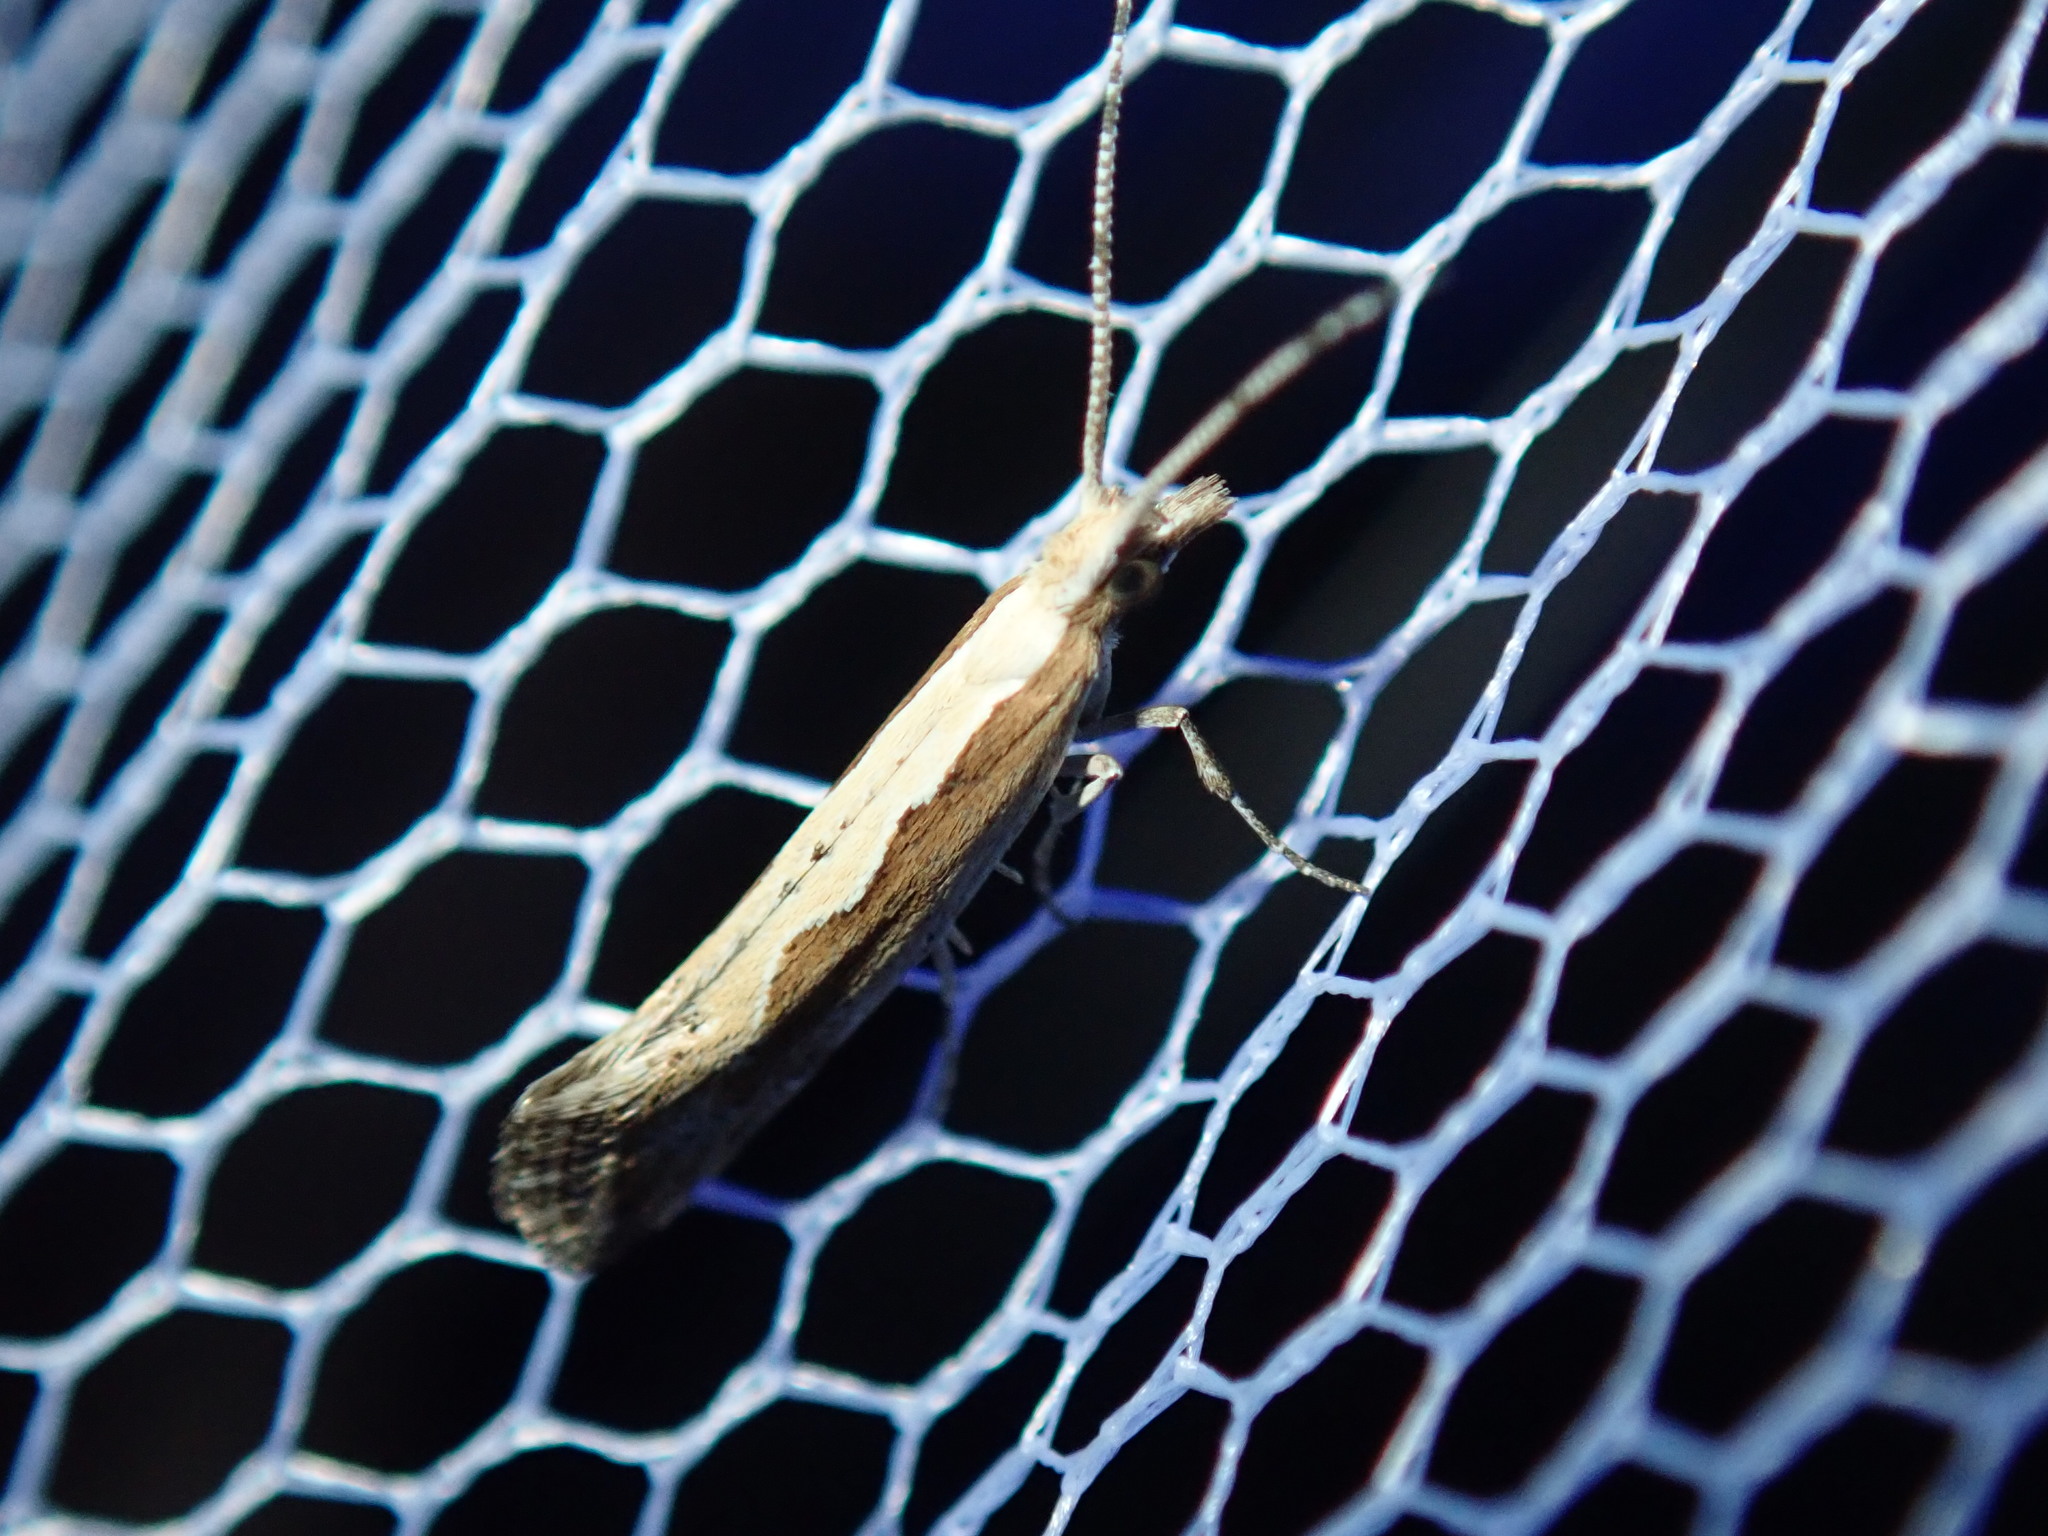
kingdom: Animalia
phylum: Arthropoda
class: Insecta
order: Lepidoptera
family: Plutellidae
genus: Plutella
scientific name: Plutella
